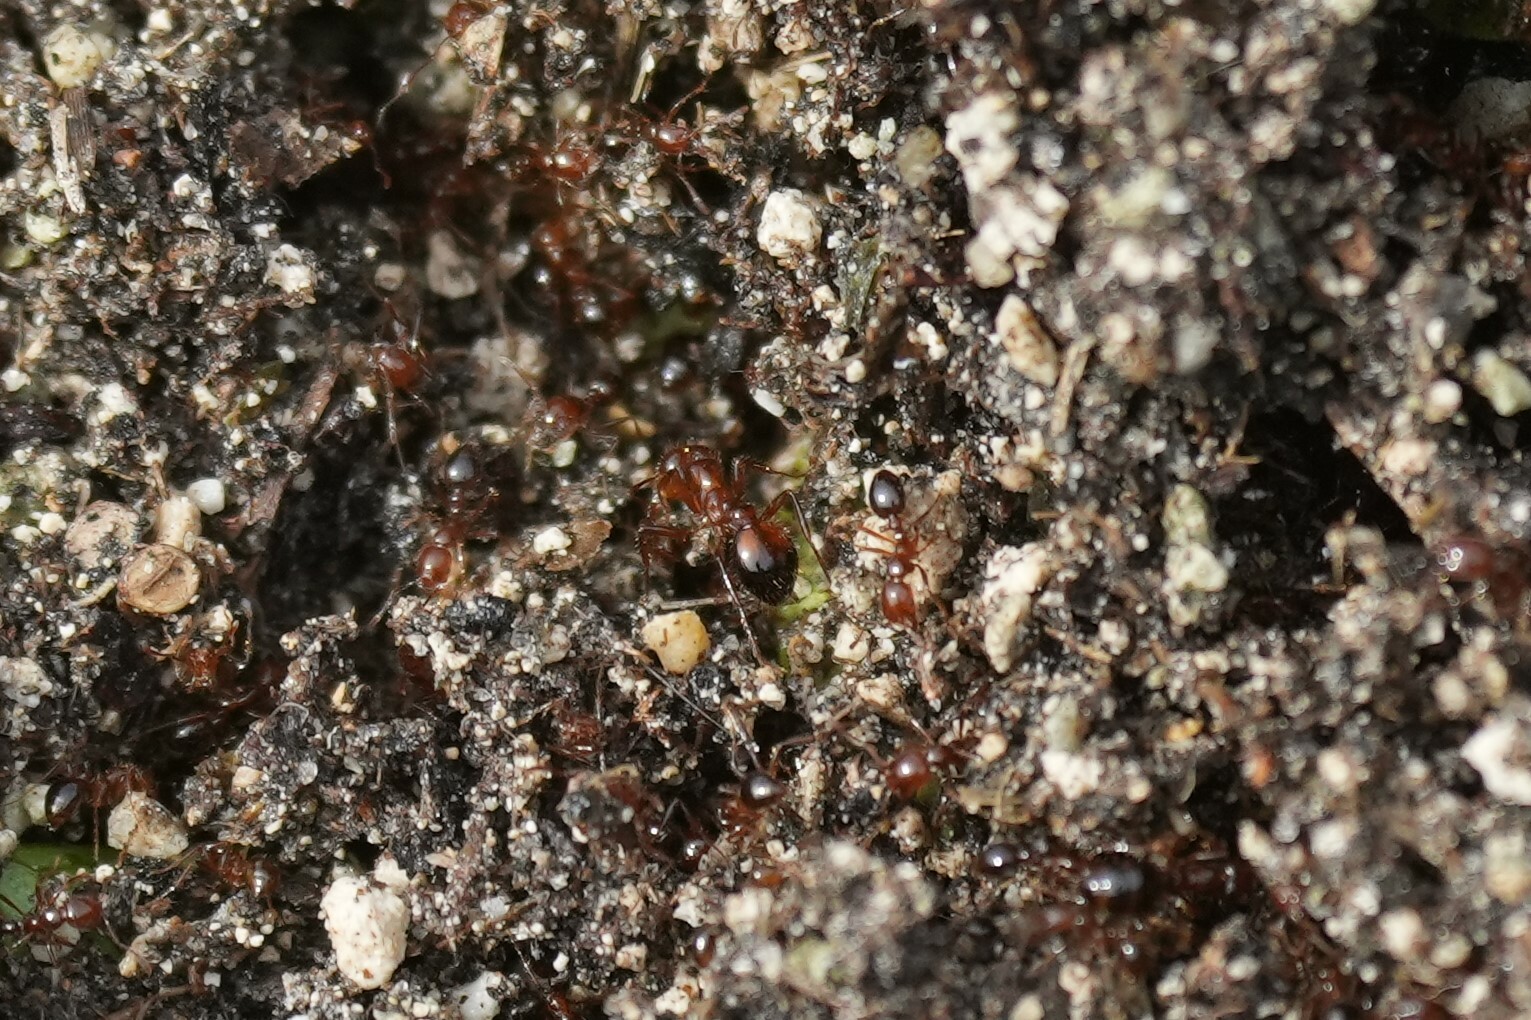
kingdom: Animalia
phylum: Arthropoda
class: Insecta
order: Hymenoptera
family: Formicidae
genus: Solenopsis
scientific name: Solenopsis invicta
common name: Red imported fire ant
